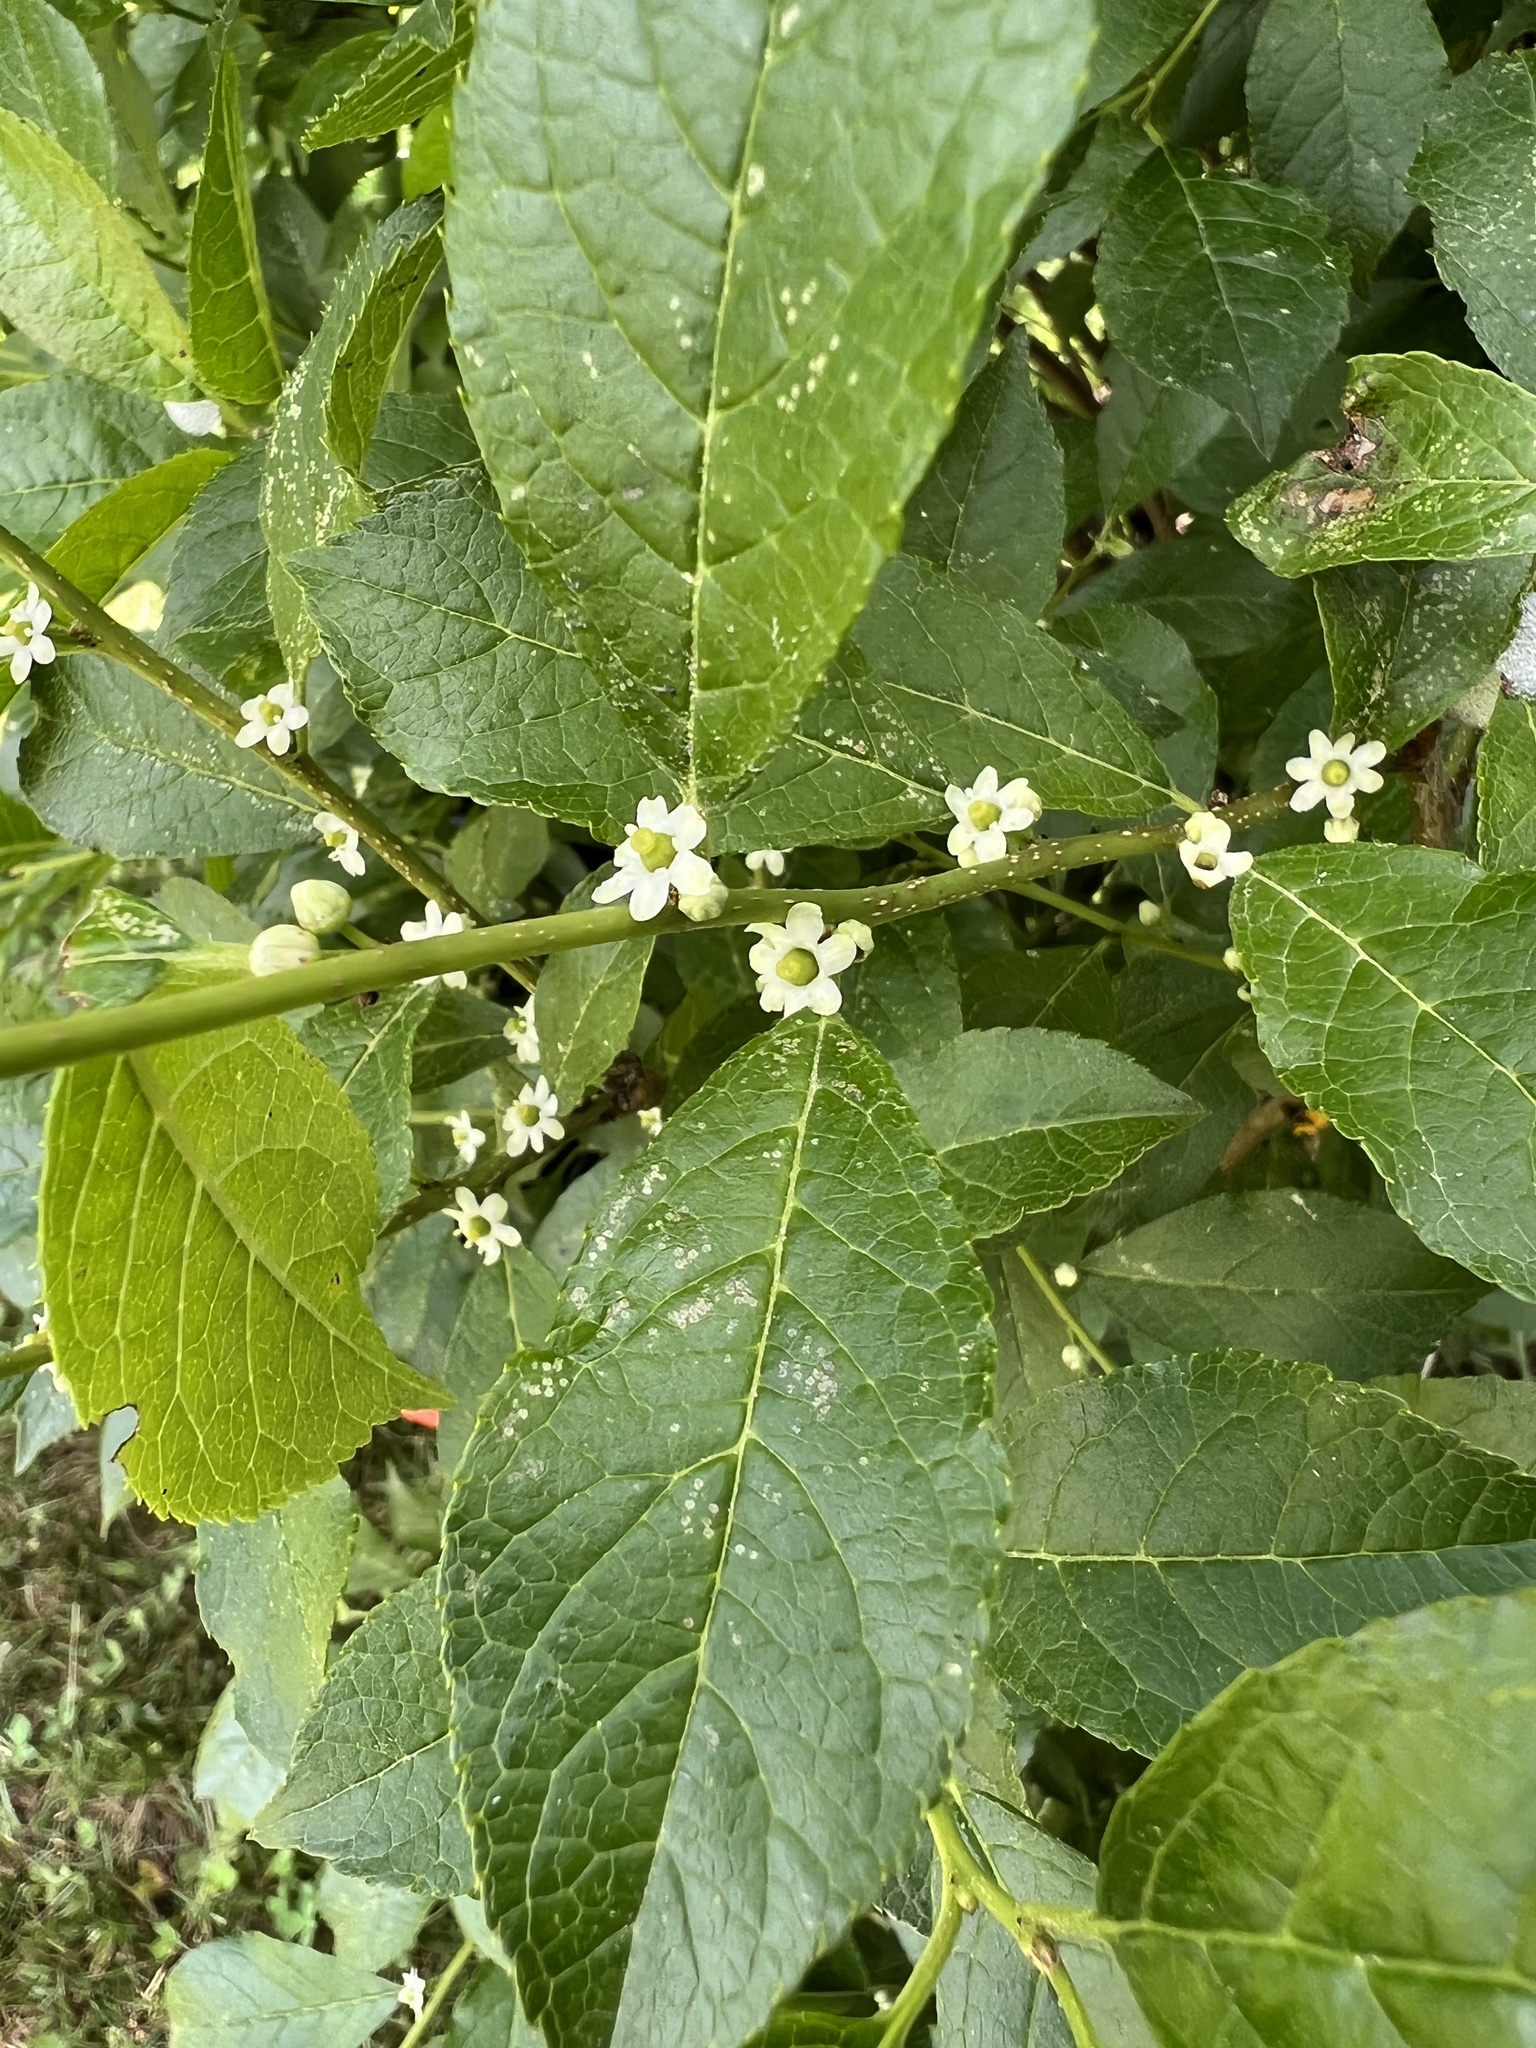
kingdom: Plantae
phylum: Tracheophyta
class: Magnoliopsida
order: Aquifoliales
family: Aquifoliaceae
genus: Ilex
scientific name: Ilex verticillata
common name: Virginia winterberry
